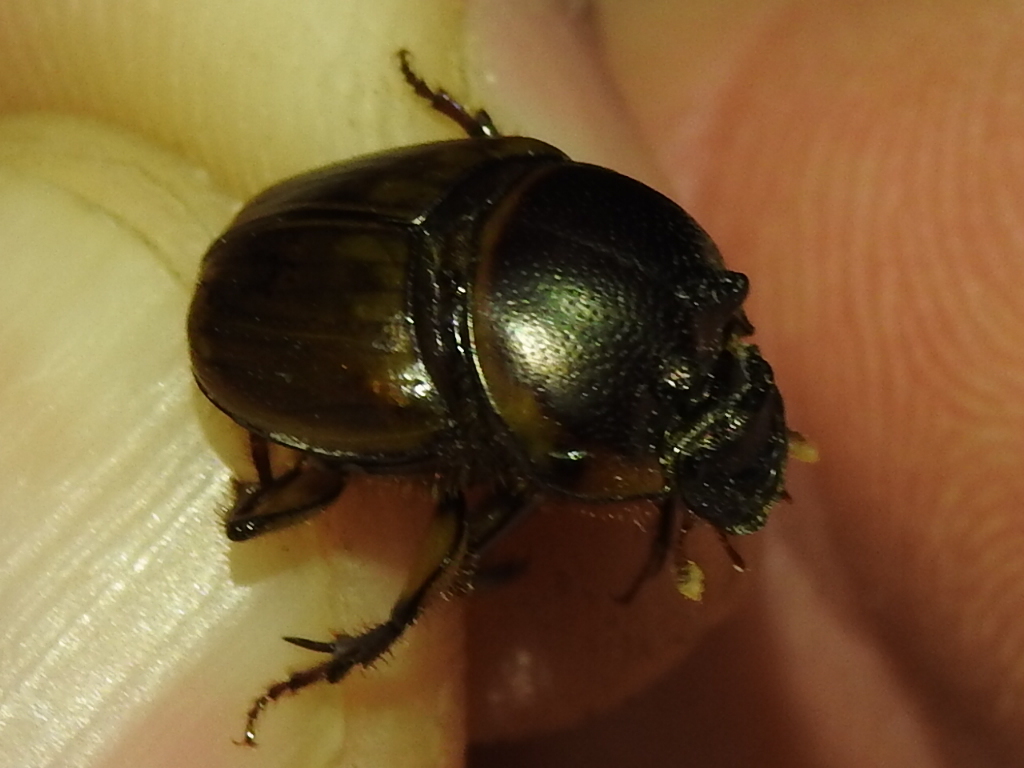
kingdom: Animalia
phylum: Arthropoda
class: Insecta
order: Coleoptera
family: Scarabaeidae
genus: Digitonthophagus
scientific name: Digitonthophagus gazella
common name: Brown dung beetle
